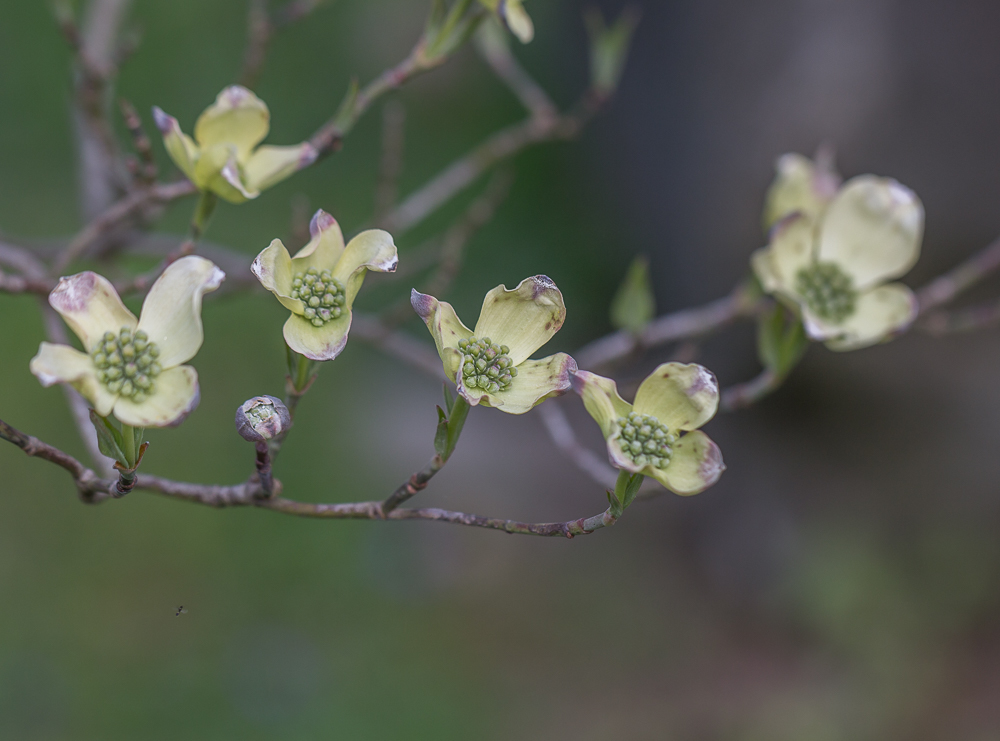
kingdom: Plantae
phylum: Tracheophyta
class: Magnoliopsida
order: Cornales
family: Cornaceae
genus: Cornus
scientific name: Cornus florida
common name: Flowering dogwood
